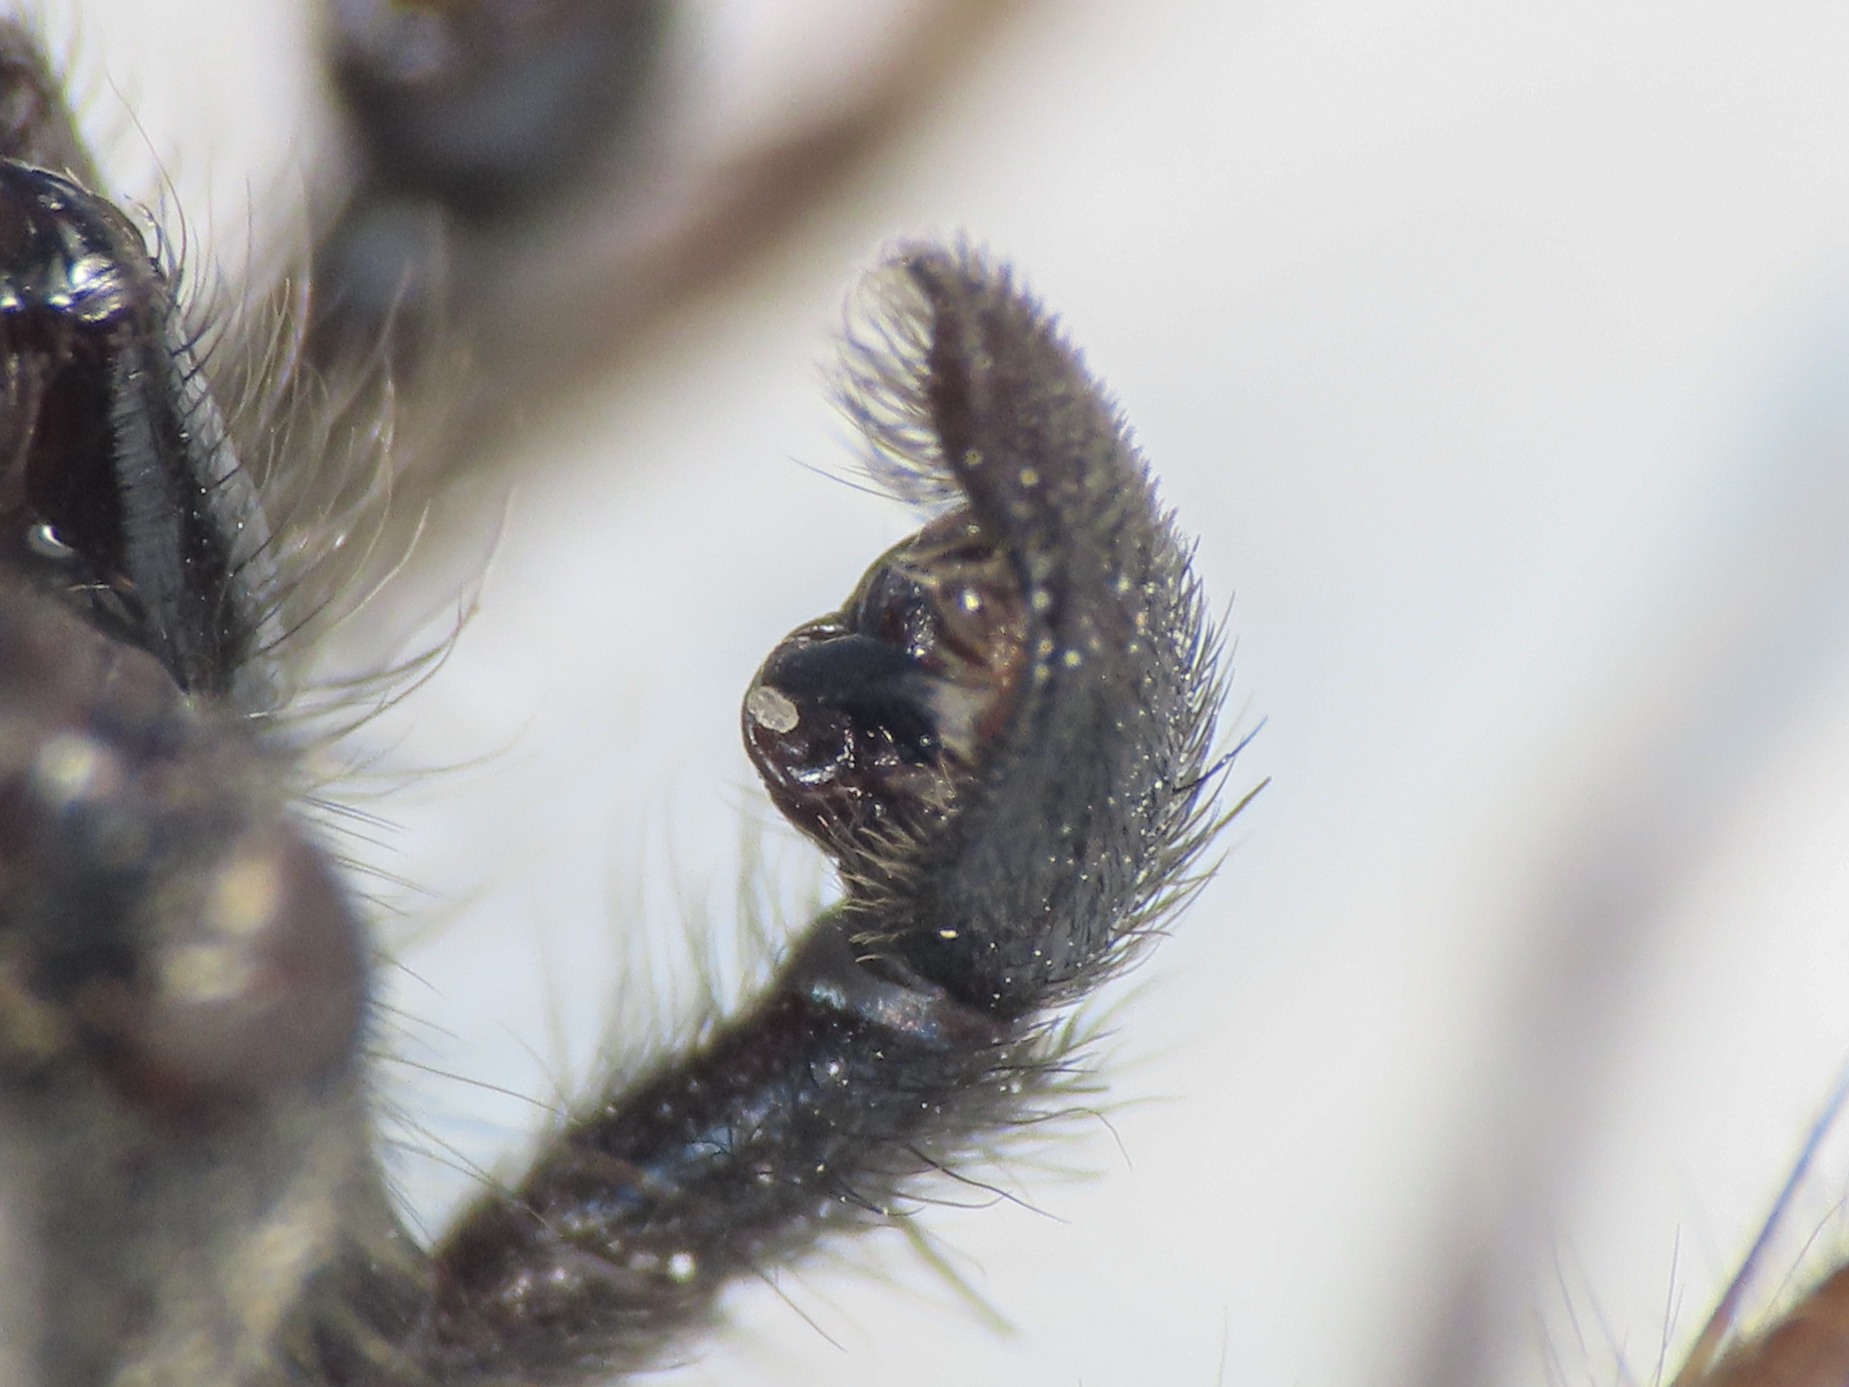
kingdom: Animalia
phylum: Arthropoda
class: Arachnida
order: Araneae
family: Lycosidae
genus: Pardosa
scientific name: Pardosa cavannae
